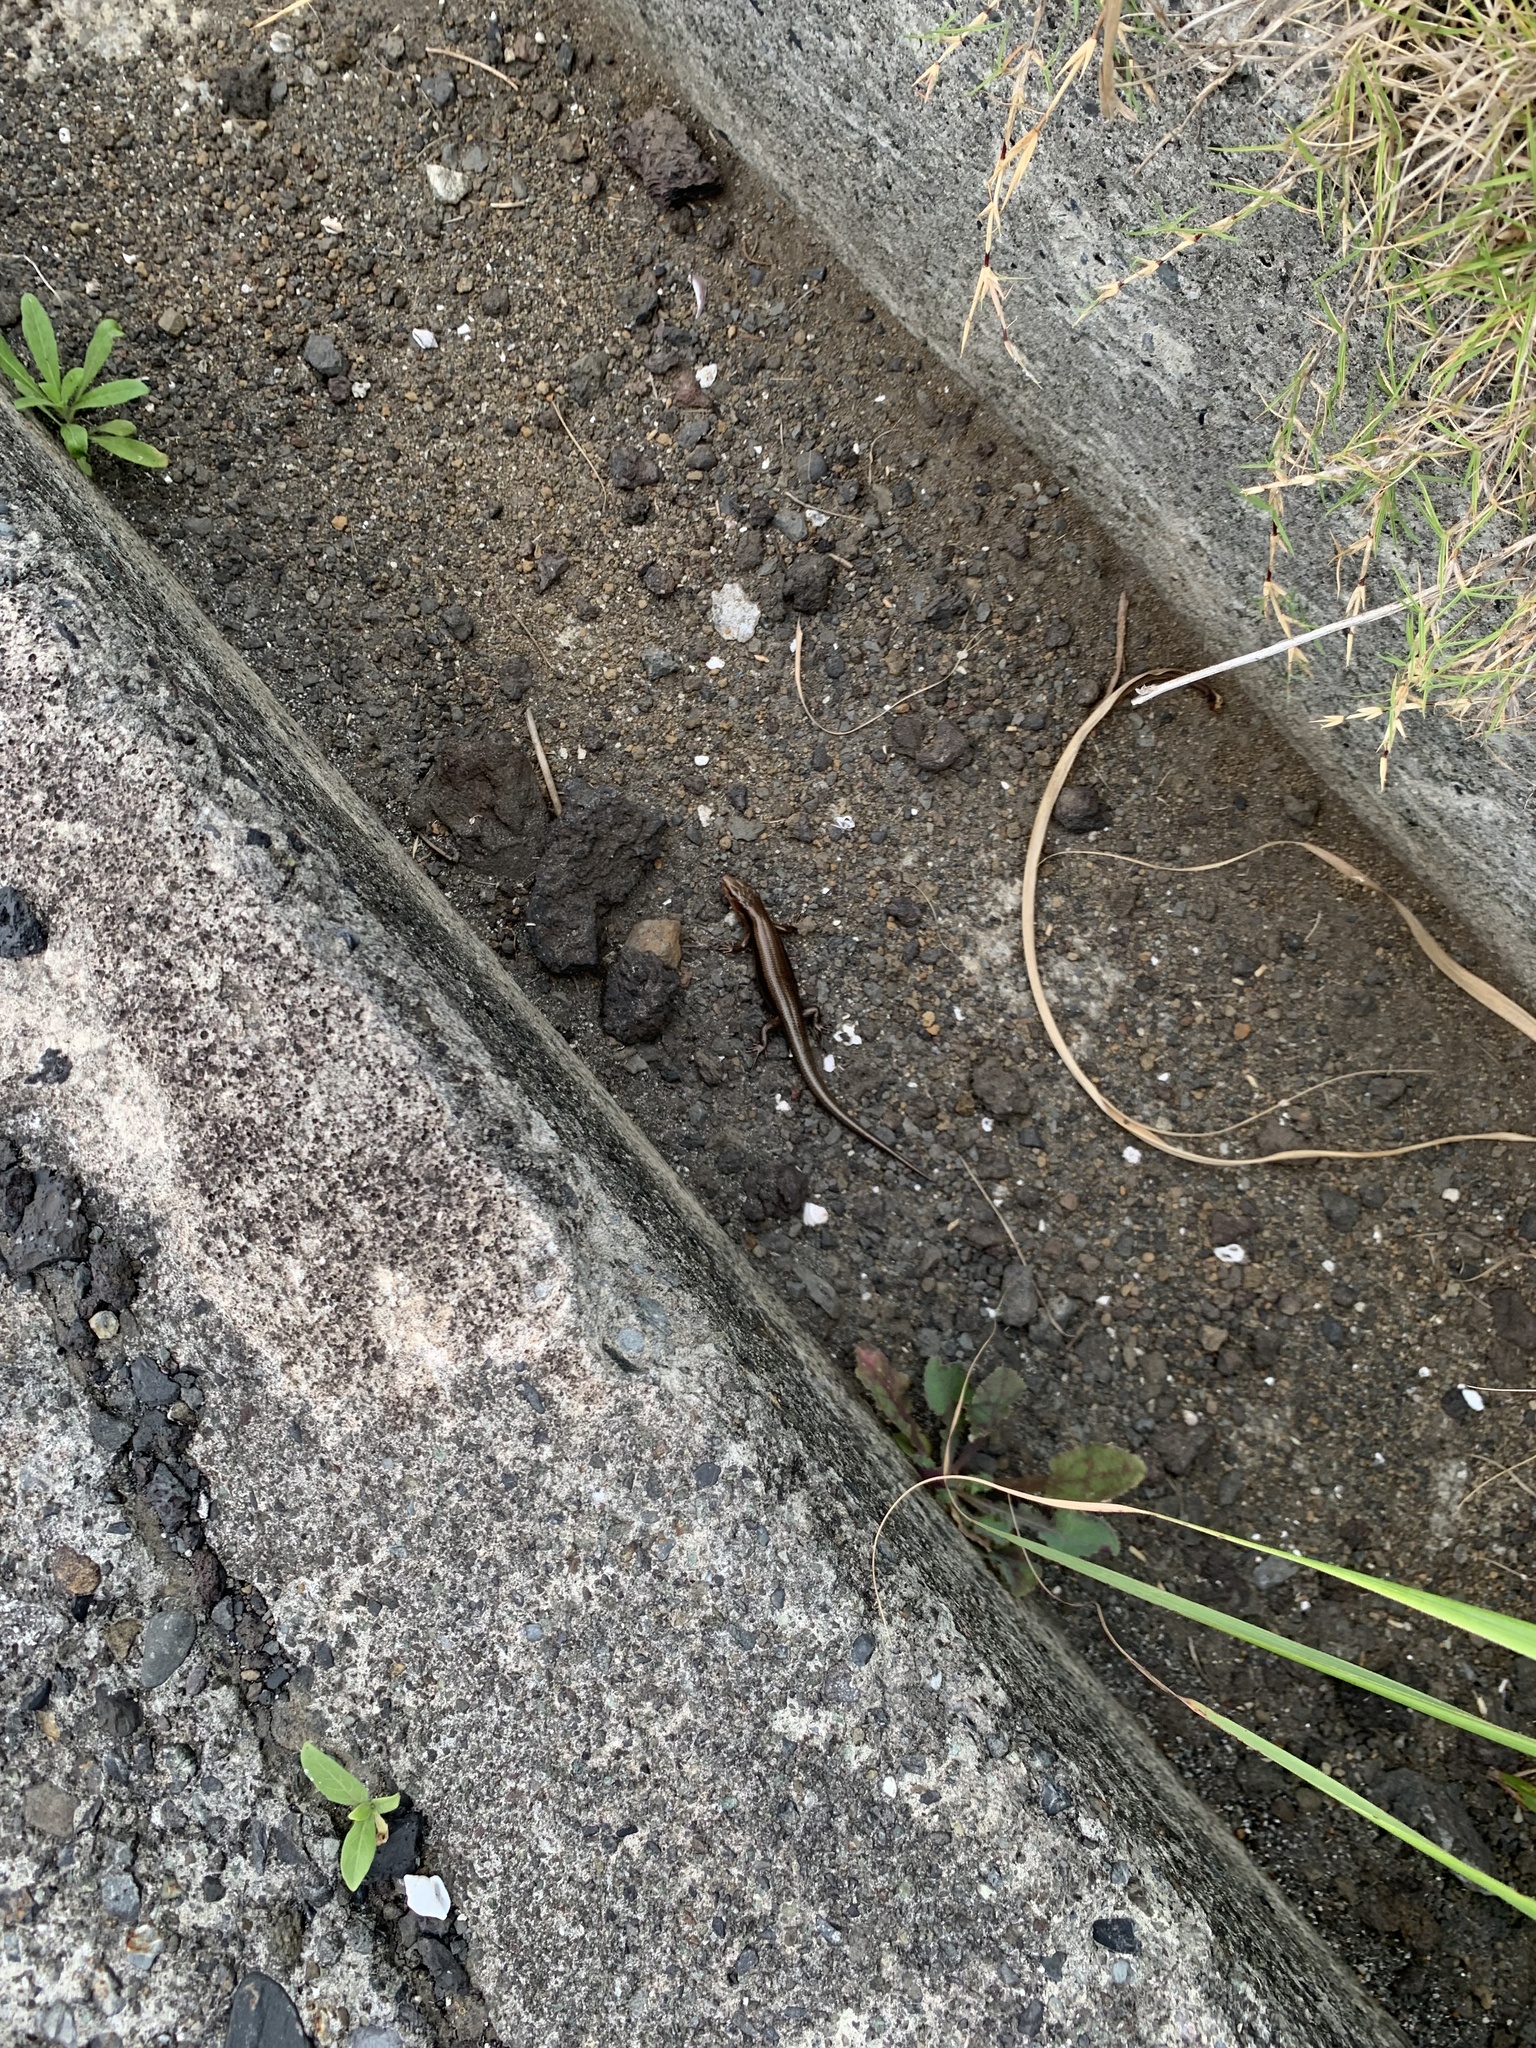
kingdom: Animalia
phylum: Chordata
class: Squamata
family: Scincidae
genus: Plestiodon
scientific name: Plestiodon latiscutatus
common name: Far eastern skink
